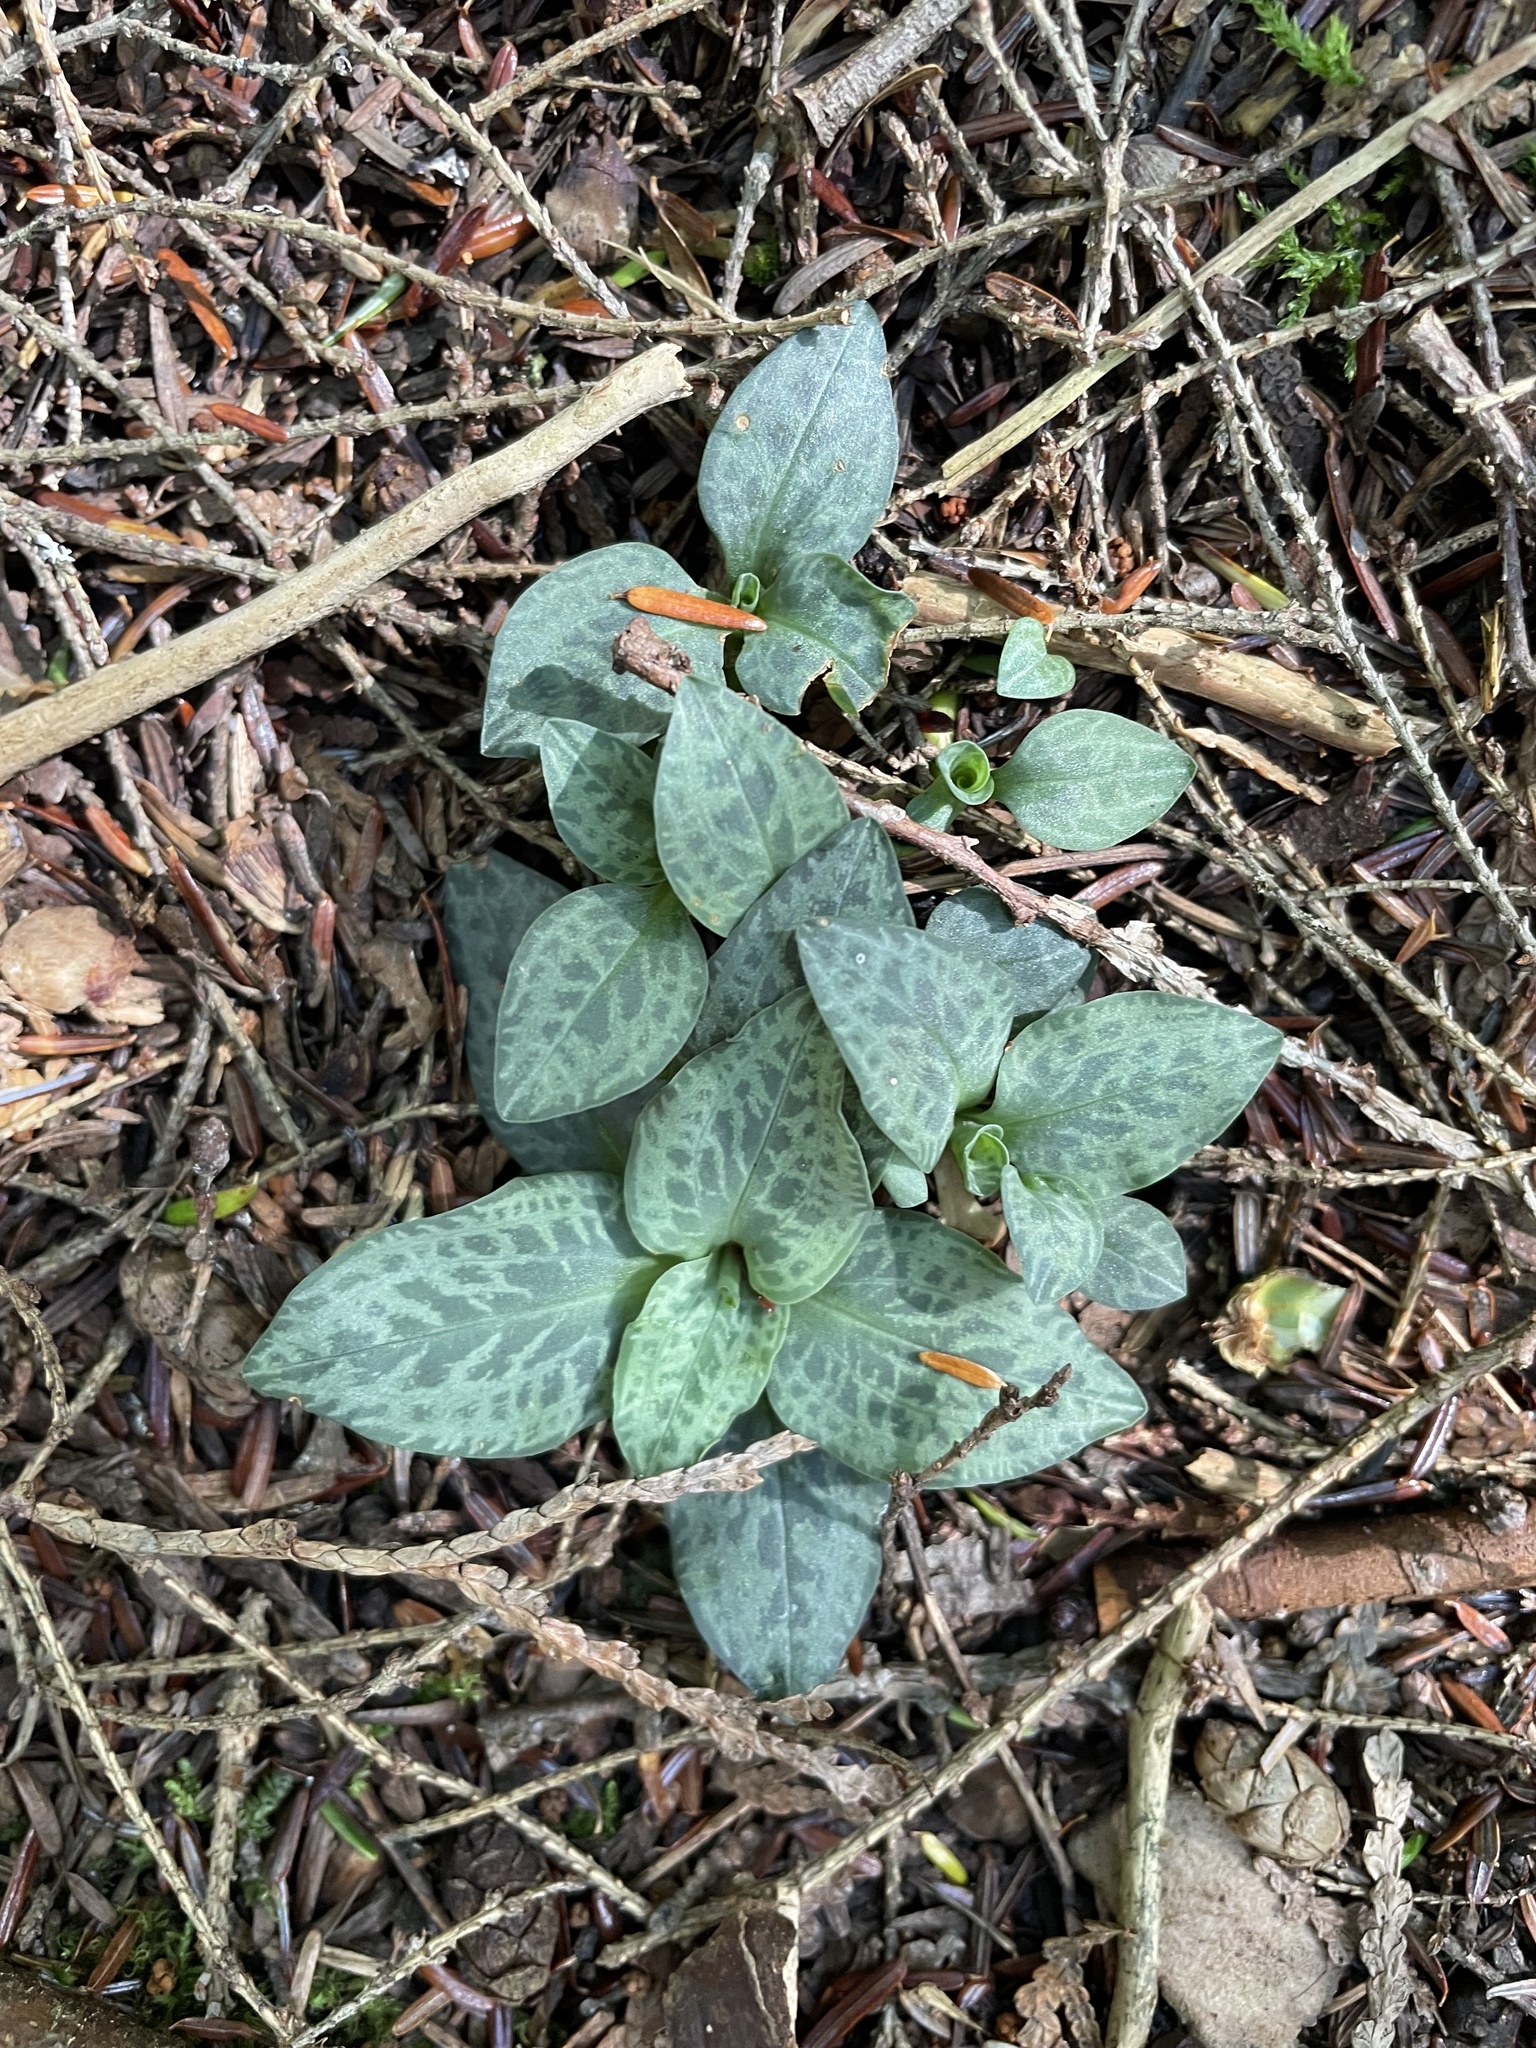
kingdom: Plantae
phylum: Tracheophyta
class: Liliopsida
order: Asparagales
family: Orchidaceae
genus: Goodyera
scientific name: Goodyera tesselata
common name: Checkered rattlesnake-plantain
